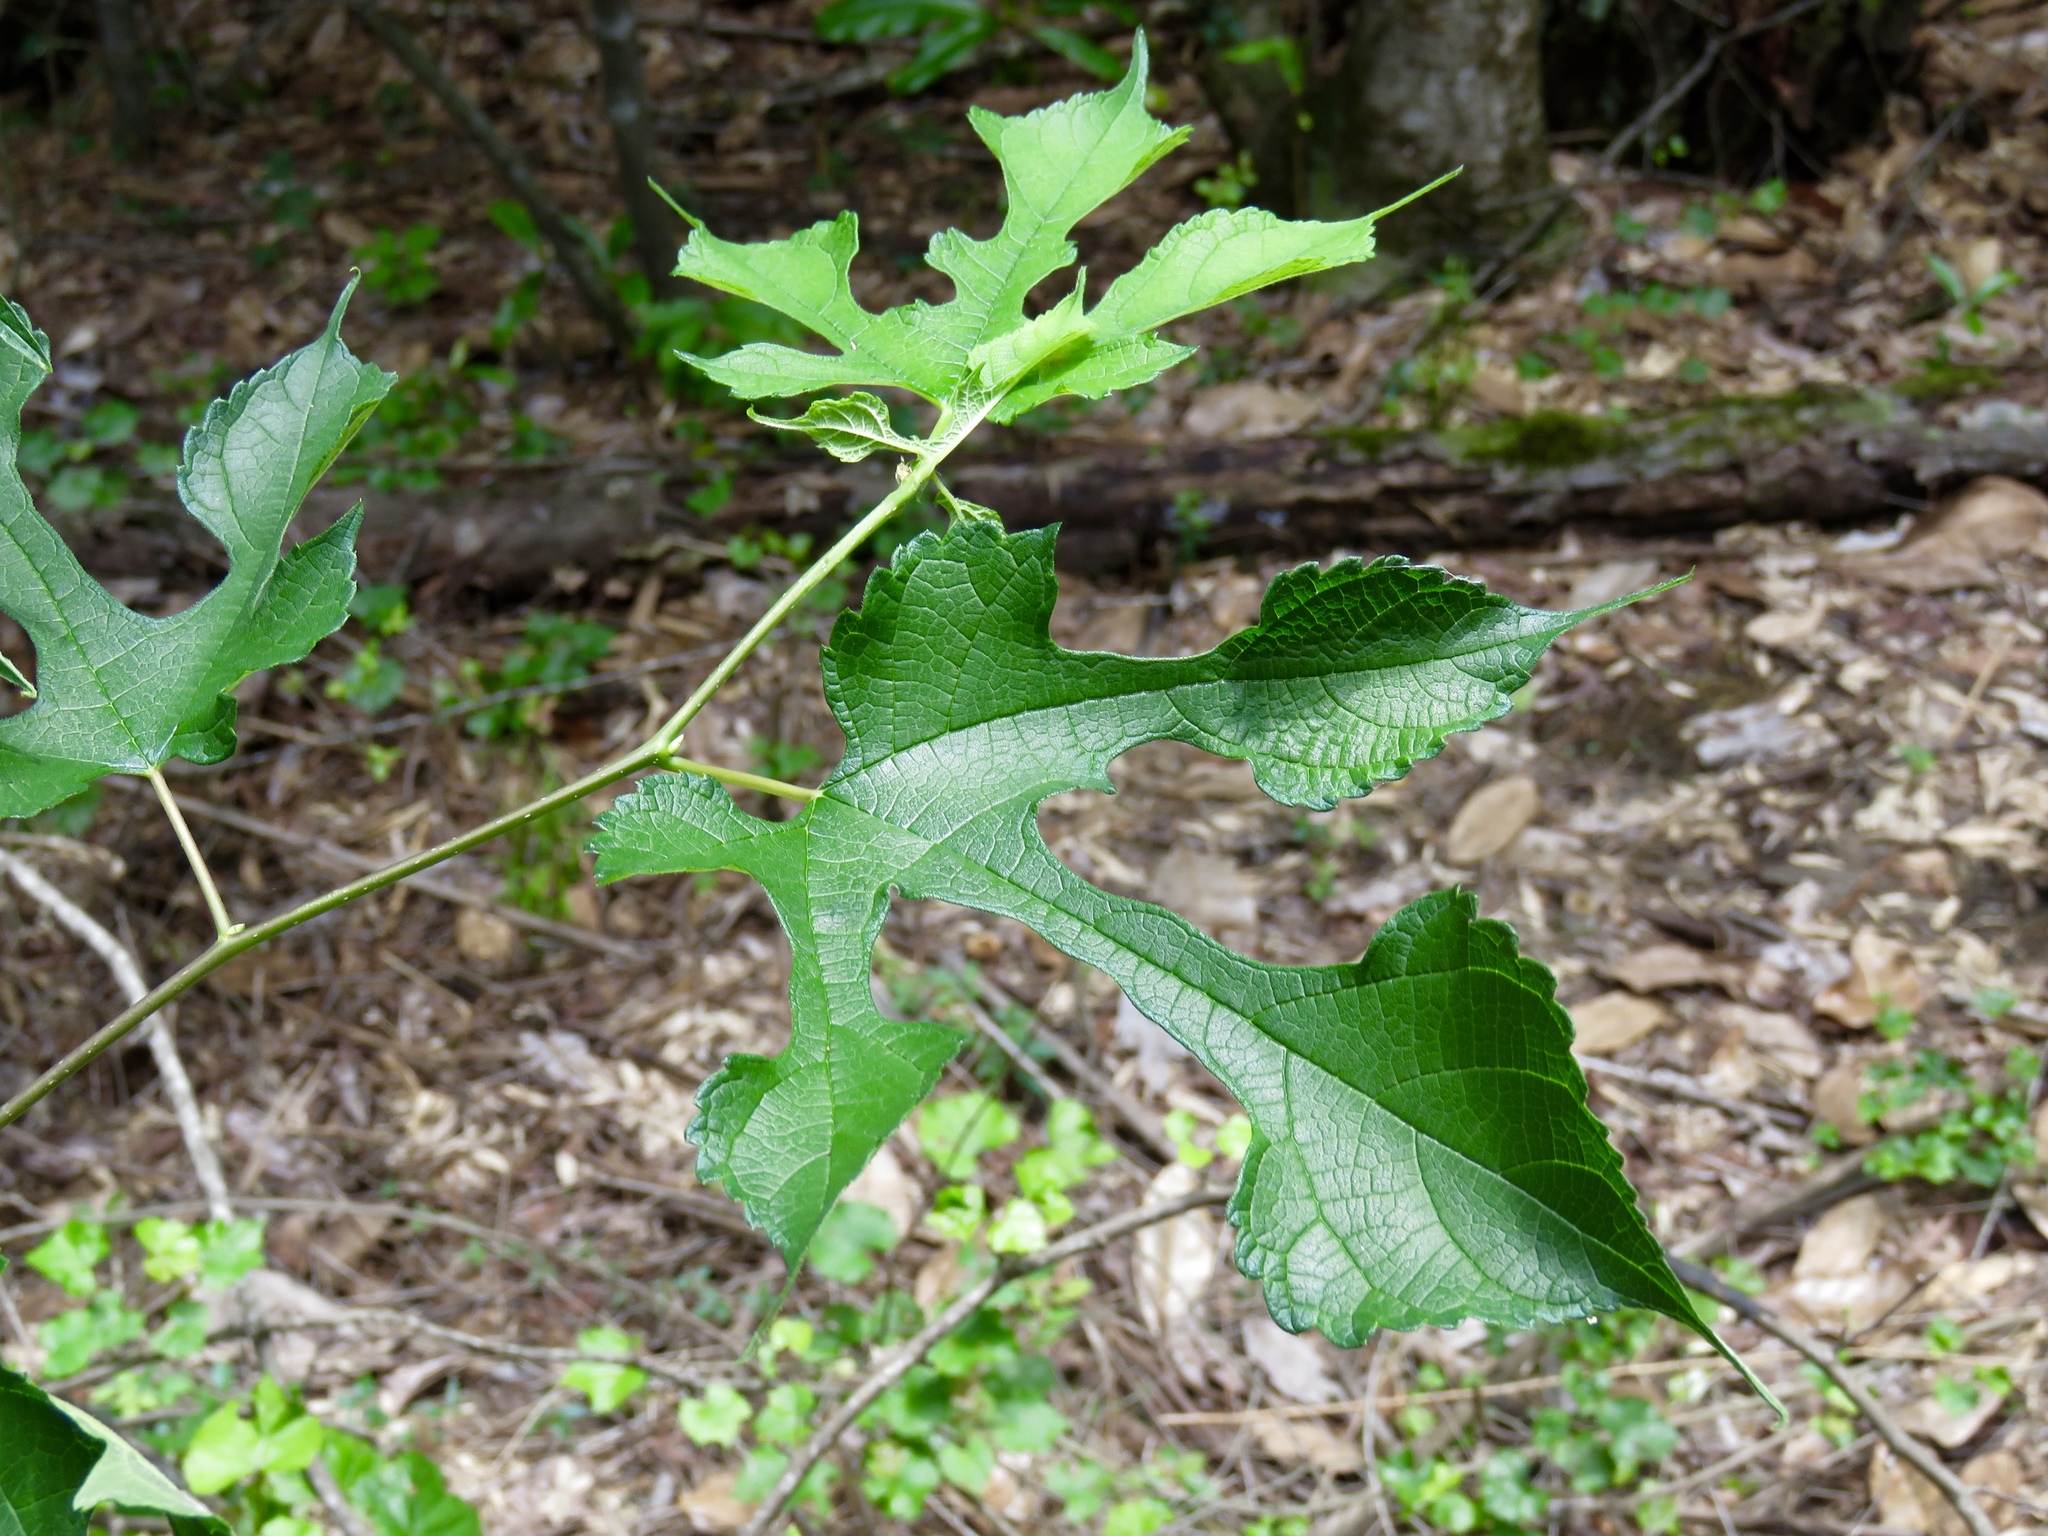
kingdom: Plantae
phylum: Tracheophyta
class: Magnoliopsida
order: Rosales
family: Moraceae
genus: Morus
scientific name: Morus alba
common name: White mulberry
